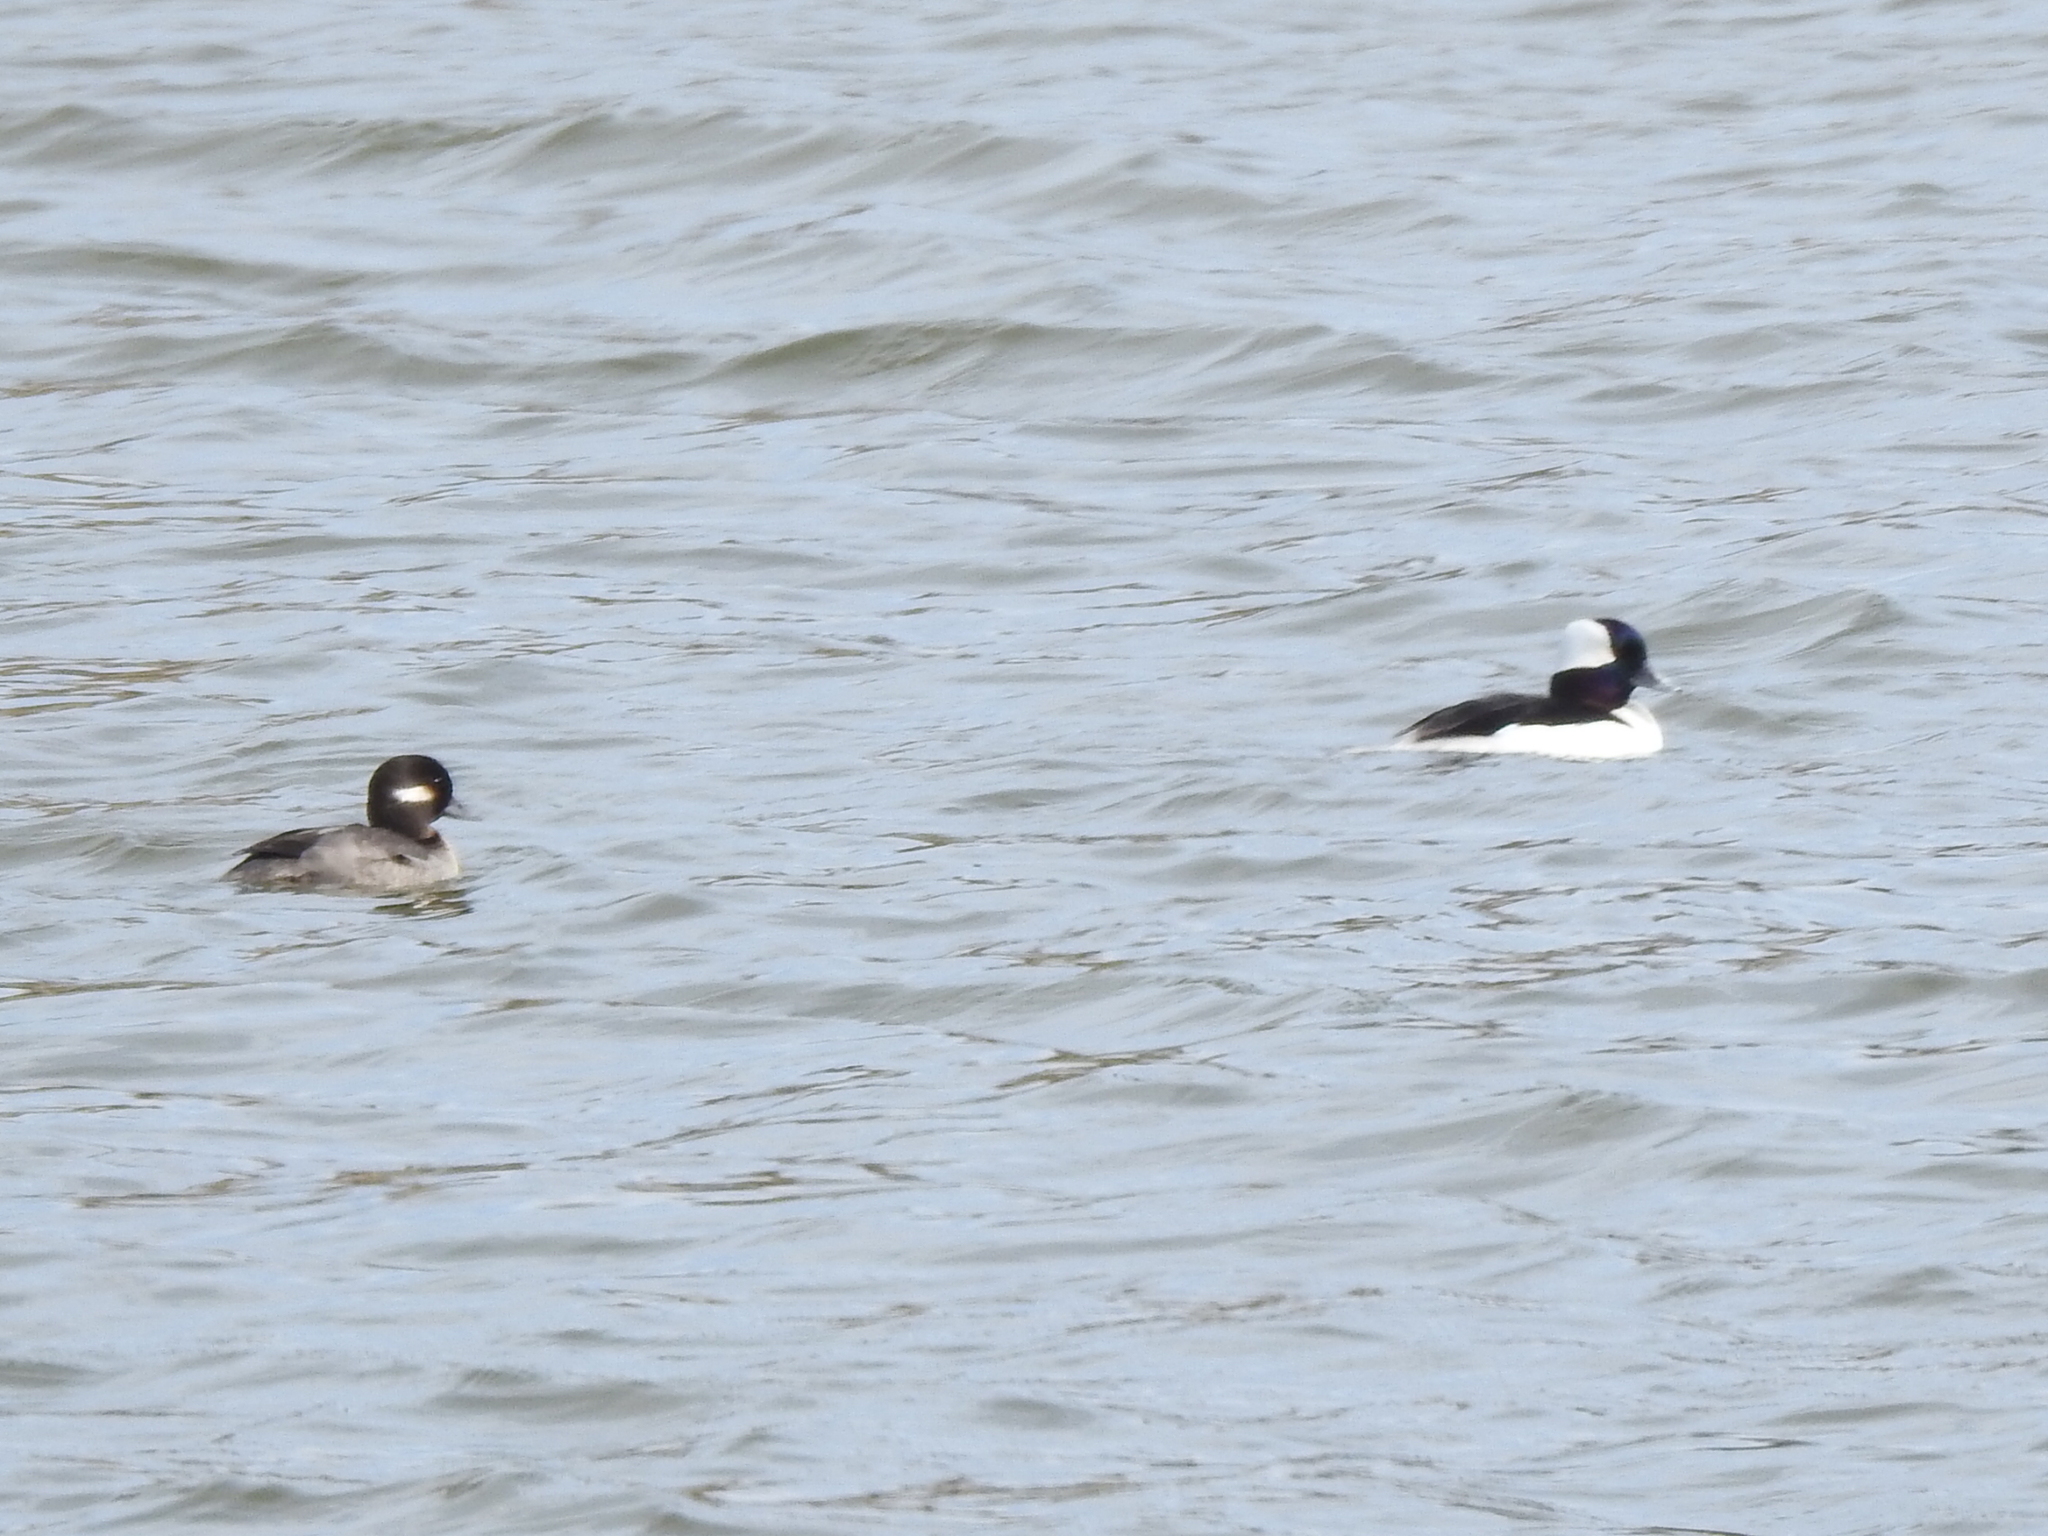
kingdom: Animalia
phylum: Chordata
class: Aves
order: Anseriformes
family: Anatidae
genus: Bucephala
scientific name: Bucephala albeola
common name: Bufflehead
